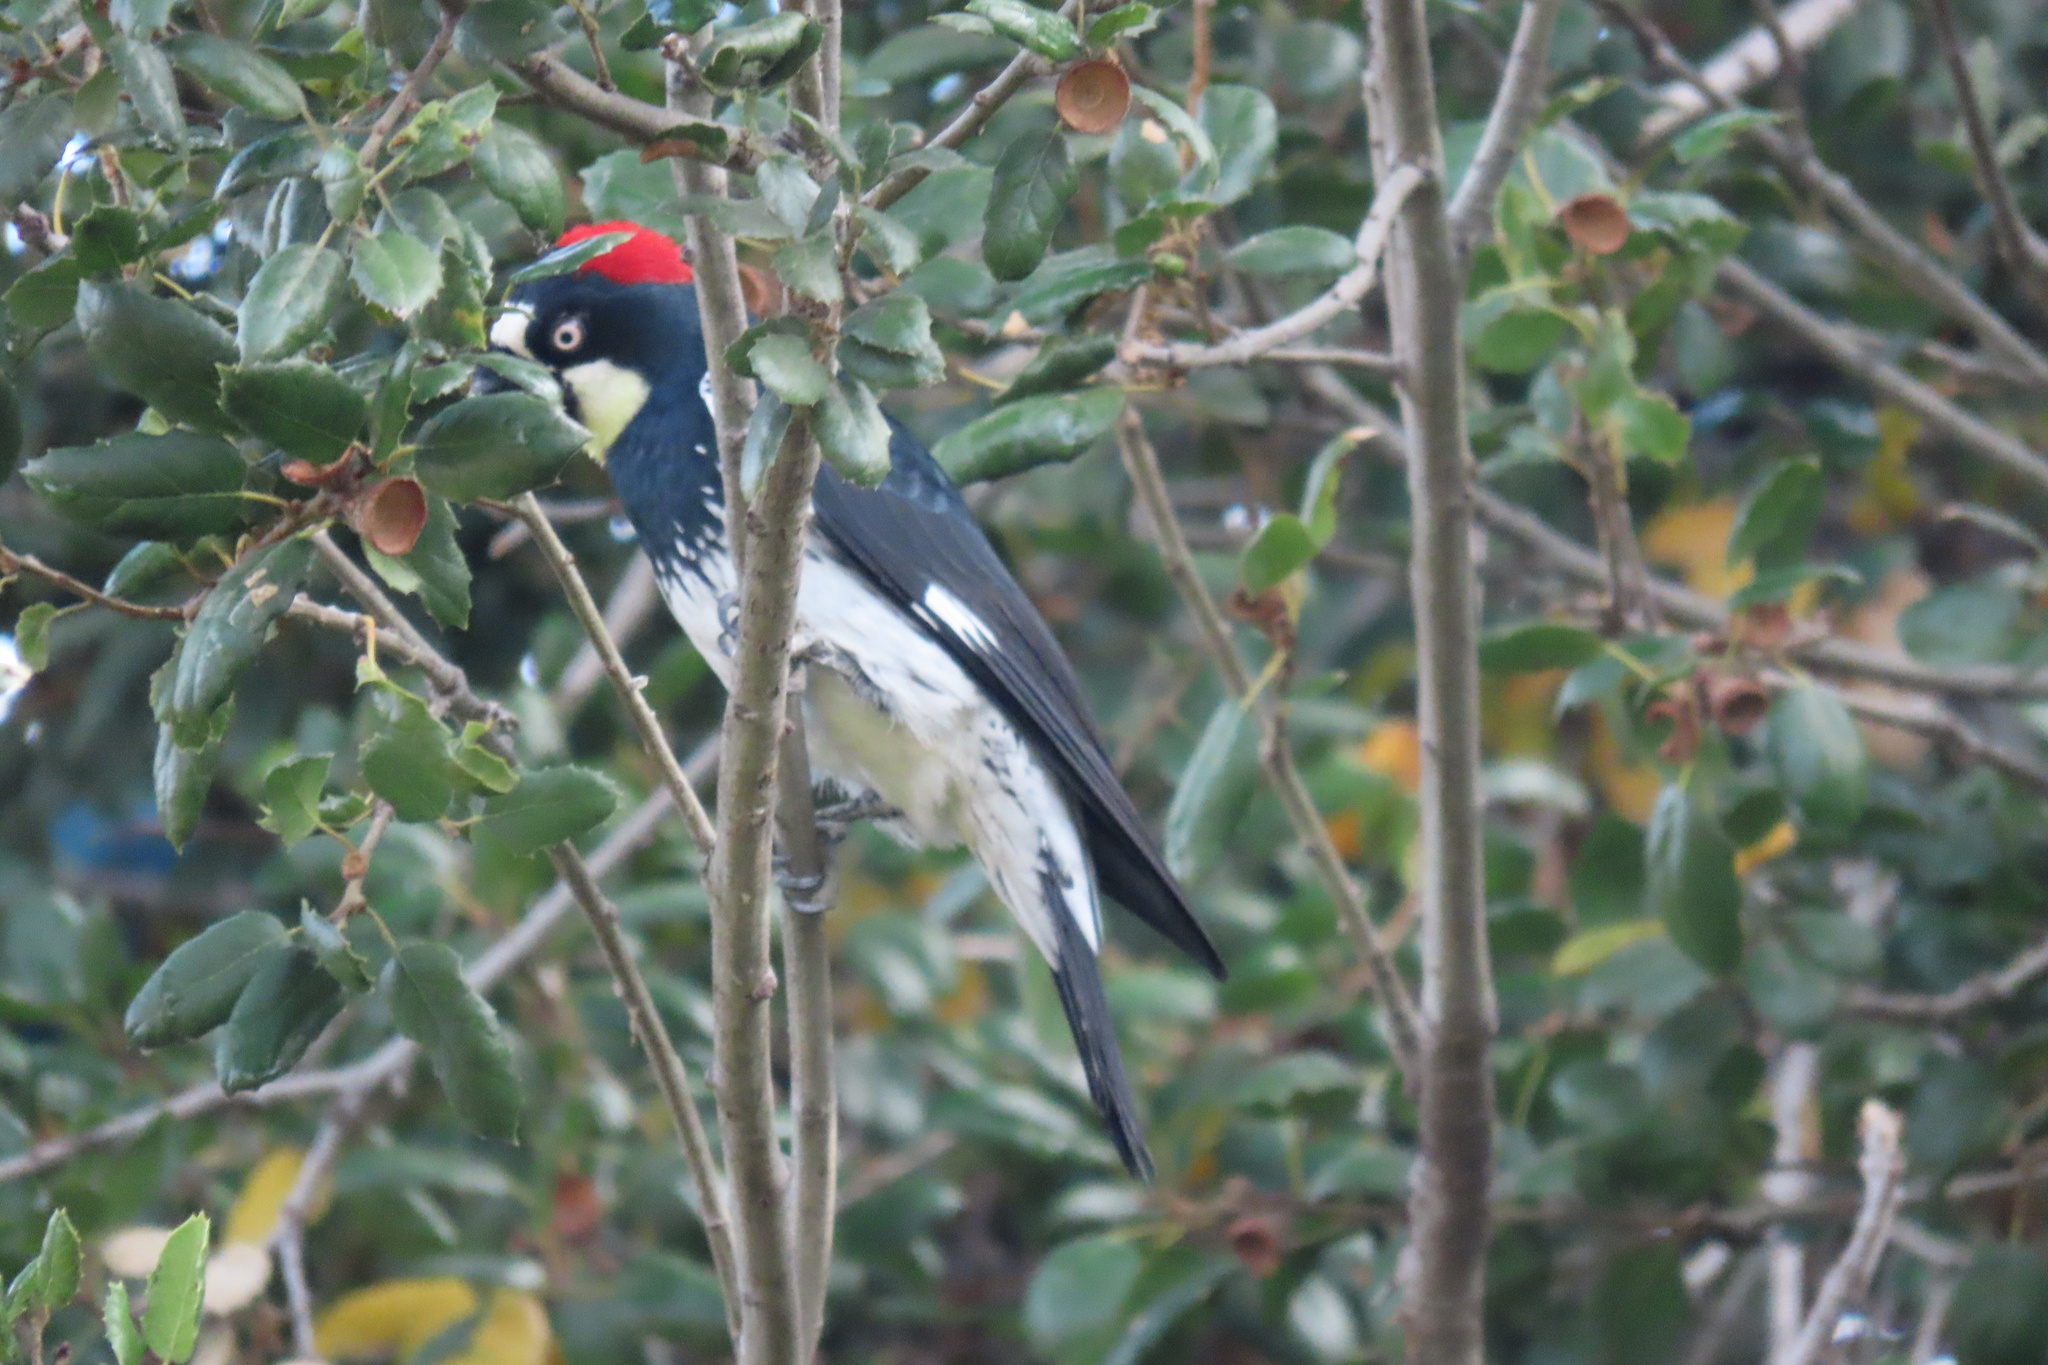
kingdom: Animalia
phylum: Chordata
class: Aves
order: Piciformes
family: Picidae
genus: Melanerpes
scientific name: Melanerpes formicivorus
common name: Acorn woodpecker
